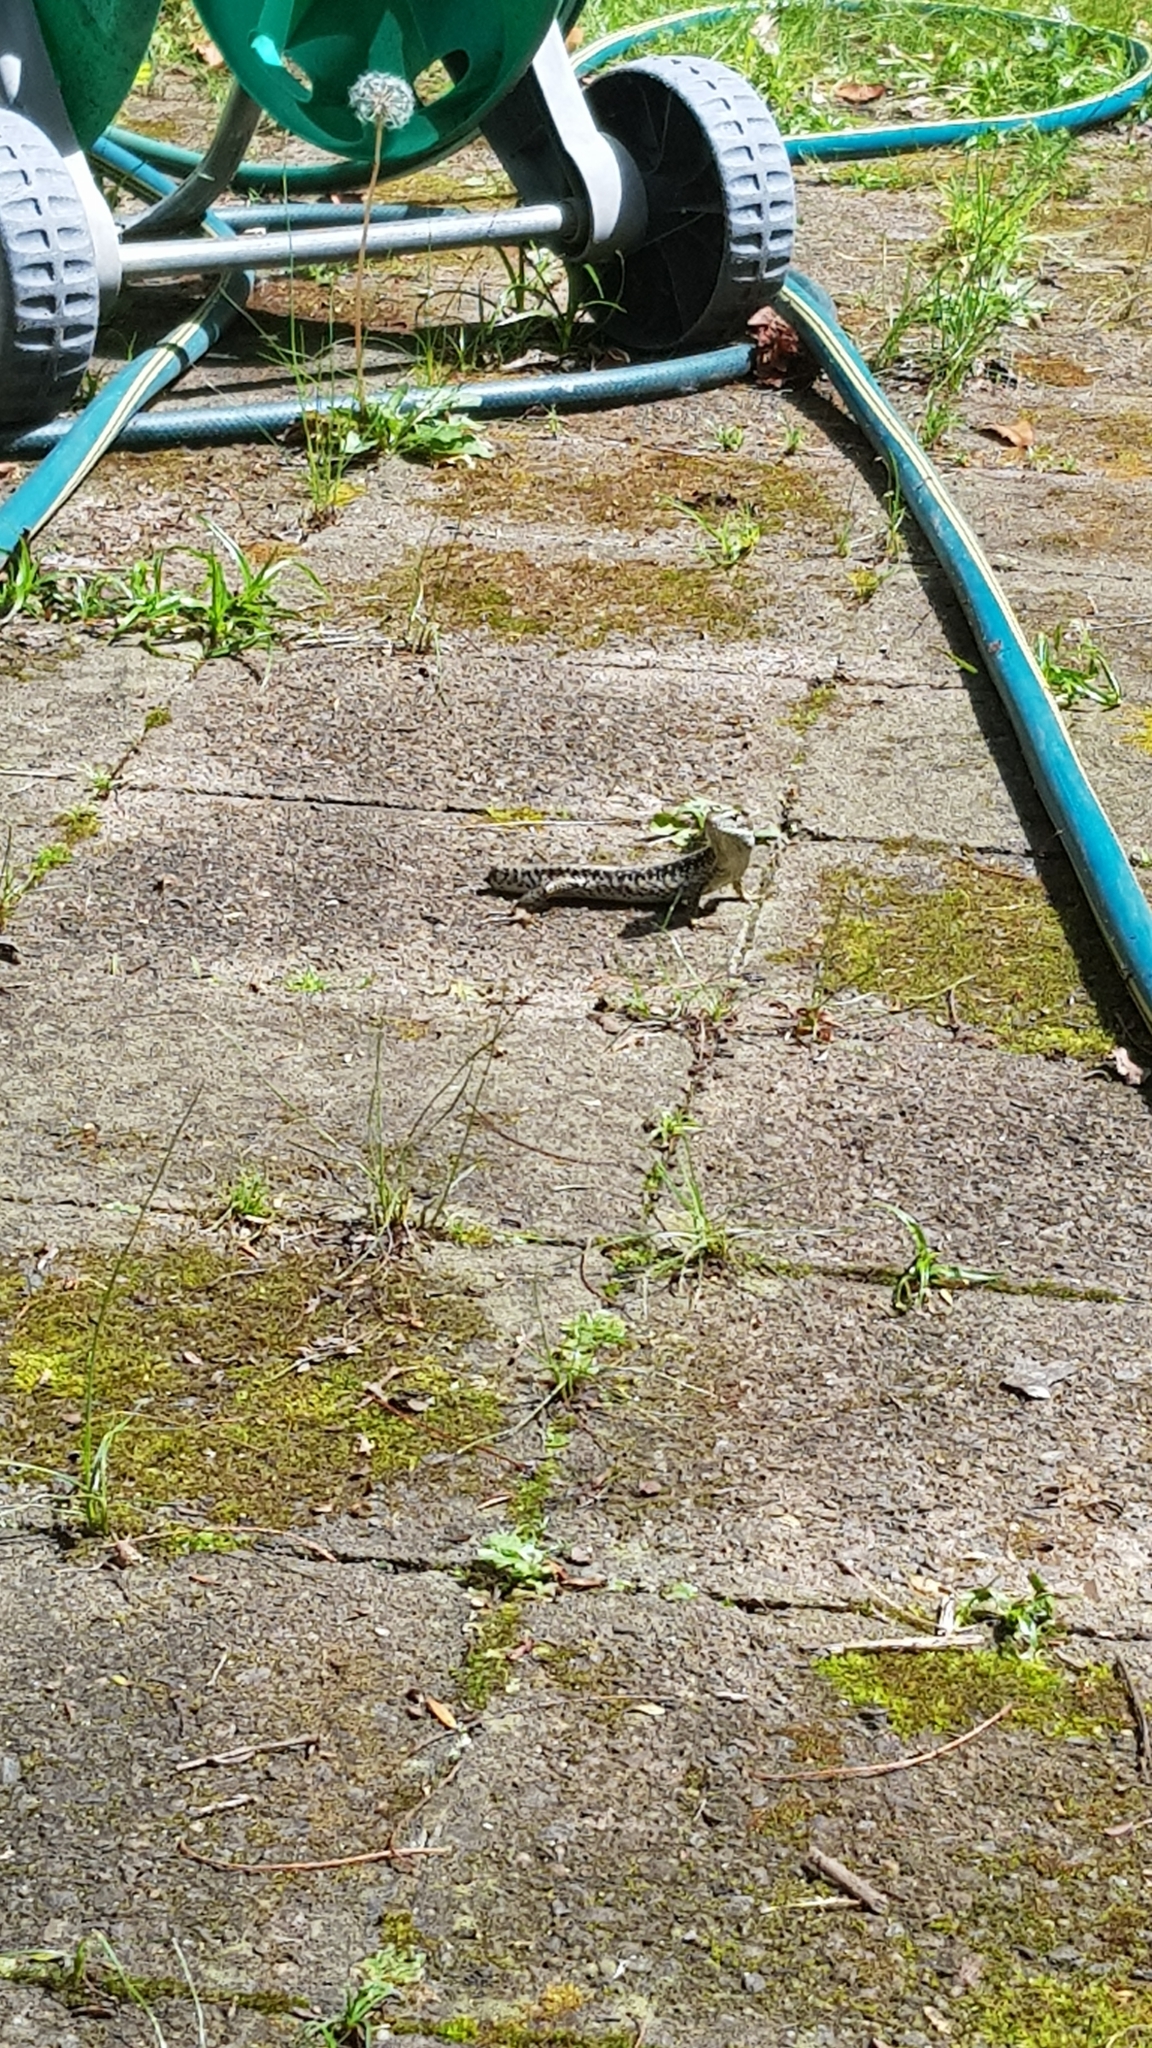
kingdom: Animalia
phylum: Chordata
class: Squamata
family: Scincidae
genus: Eulamprus
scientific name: Eulamprus quoyii
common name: Eastern water skink
